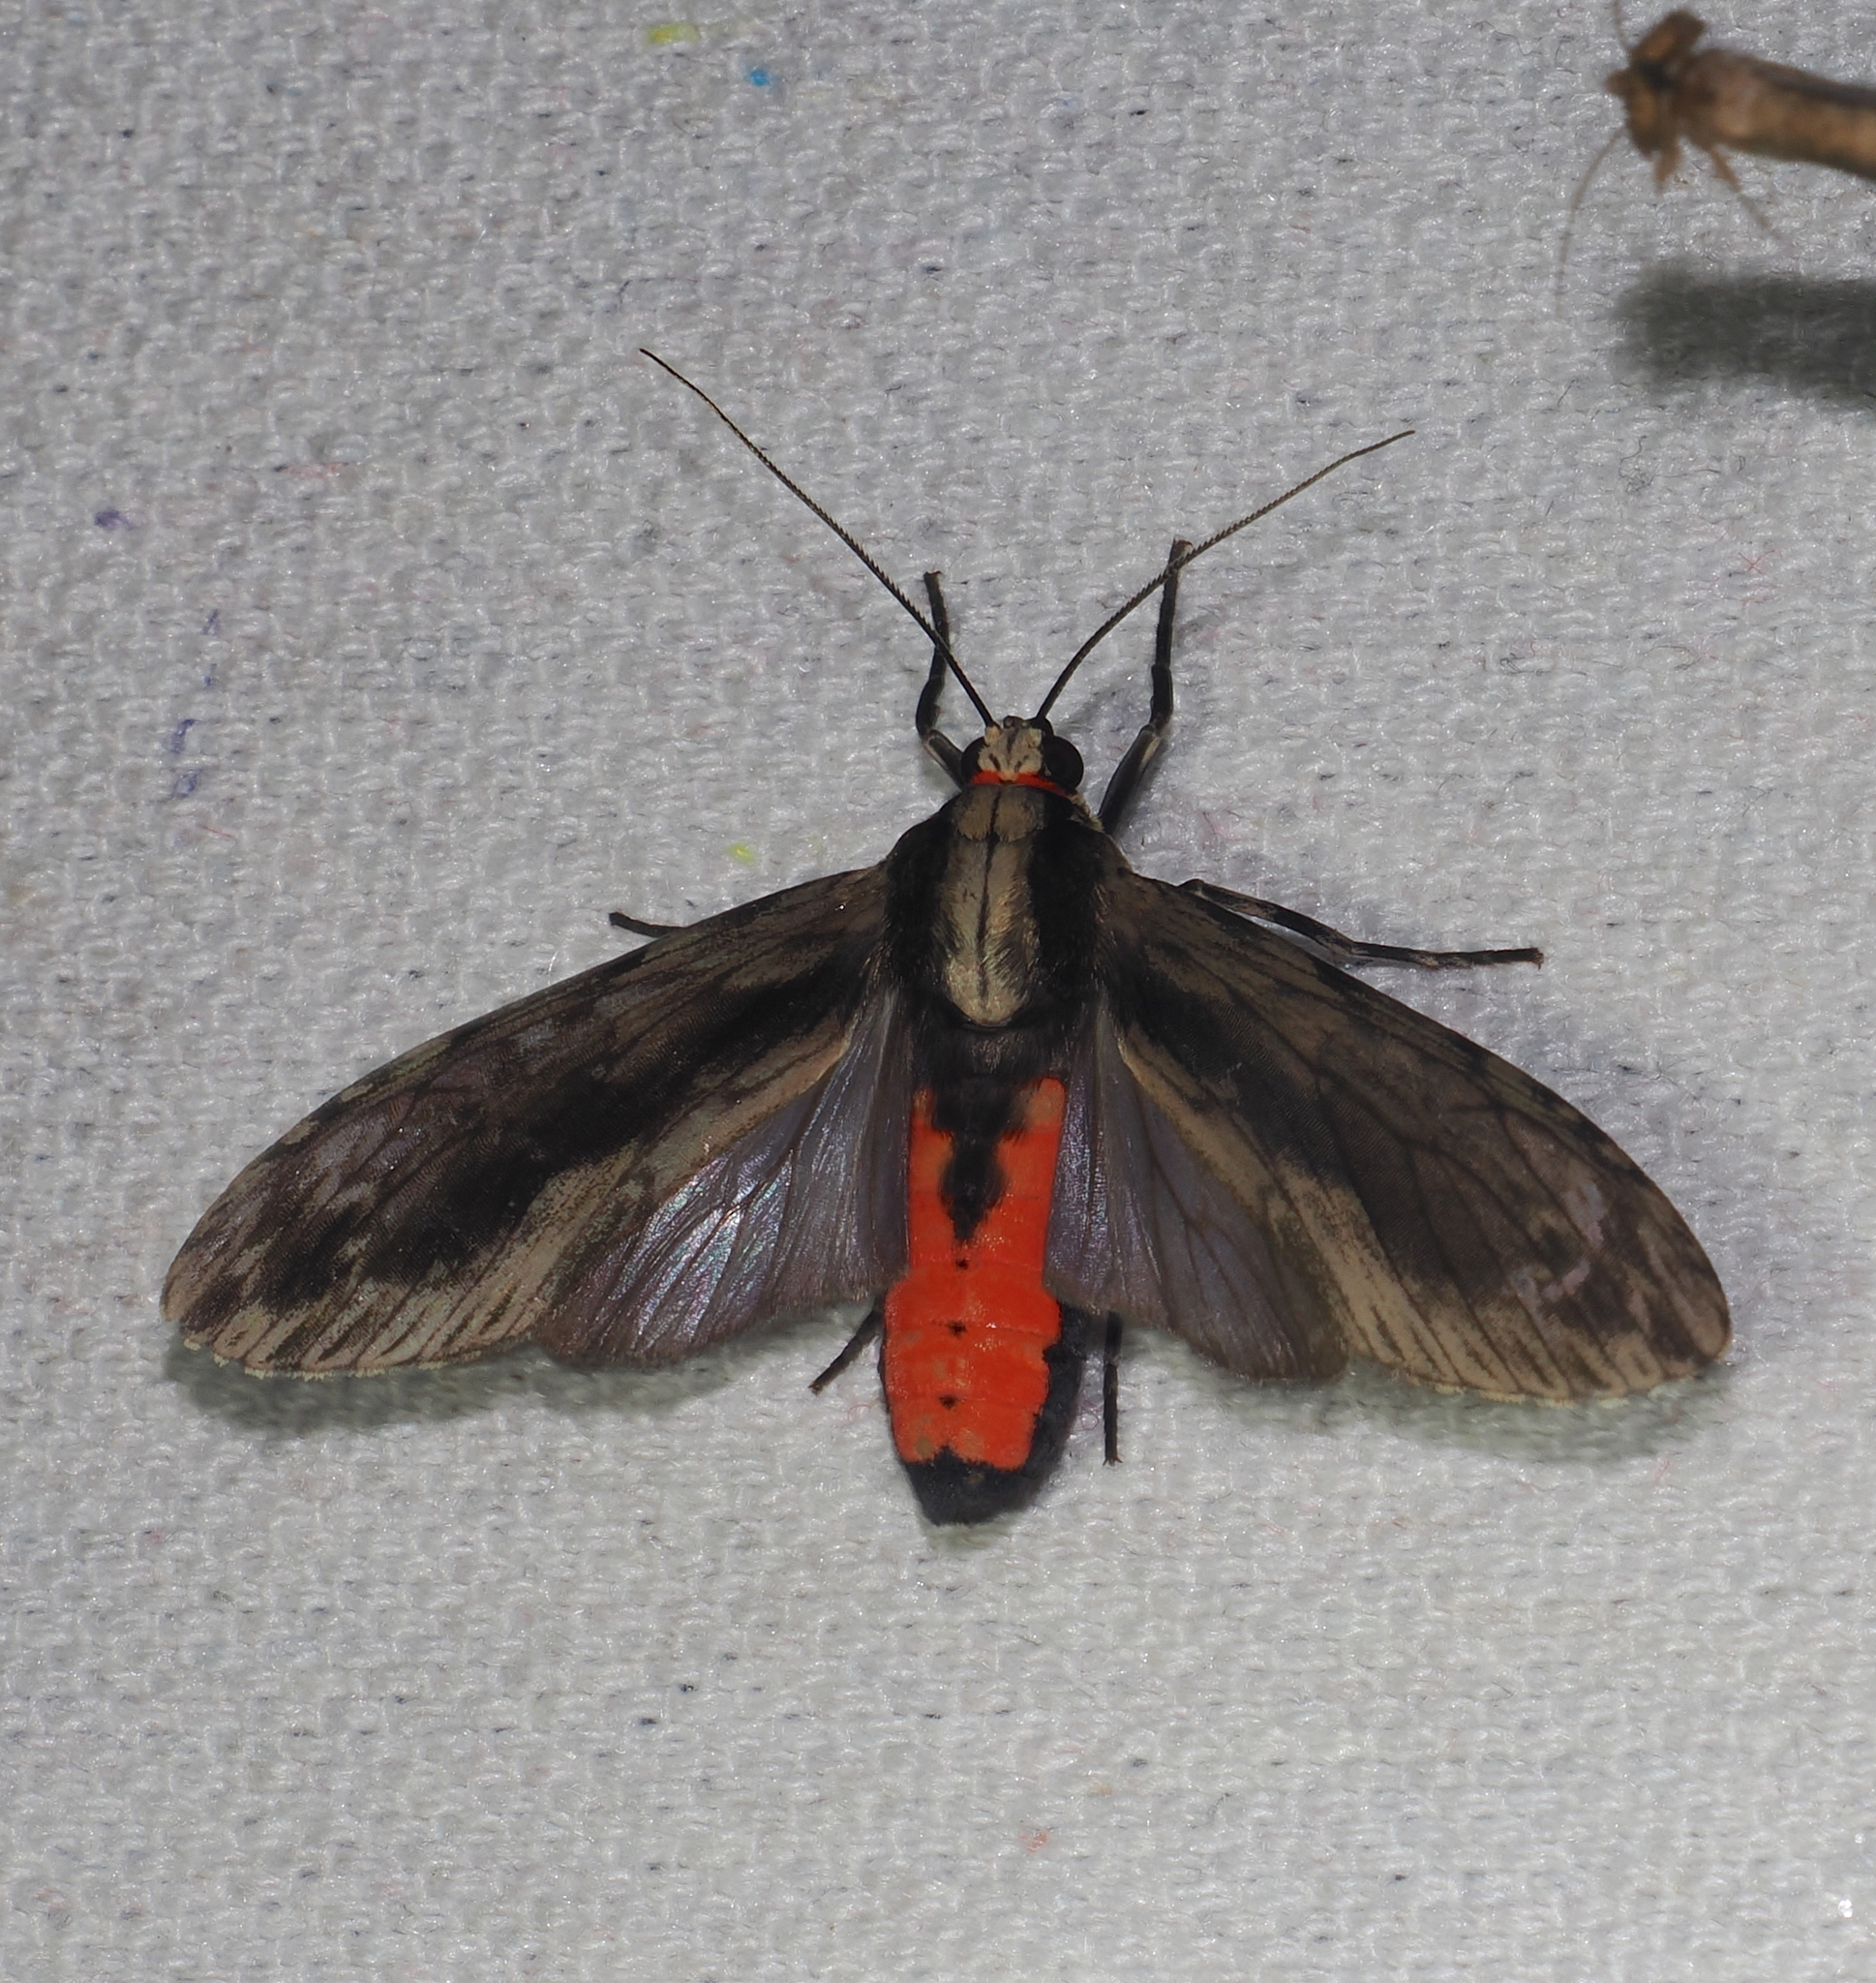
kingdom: Animalia
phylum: Arthropoda
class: Insecta
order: Lepidoptera
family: Erebidae
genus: Eucereon
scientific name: Eucereon patrona
